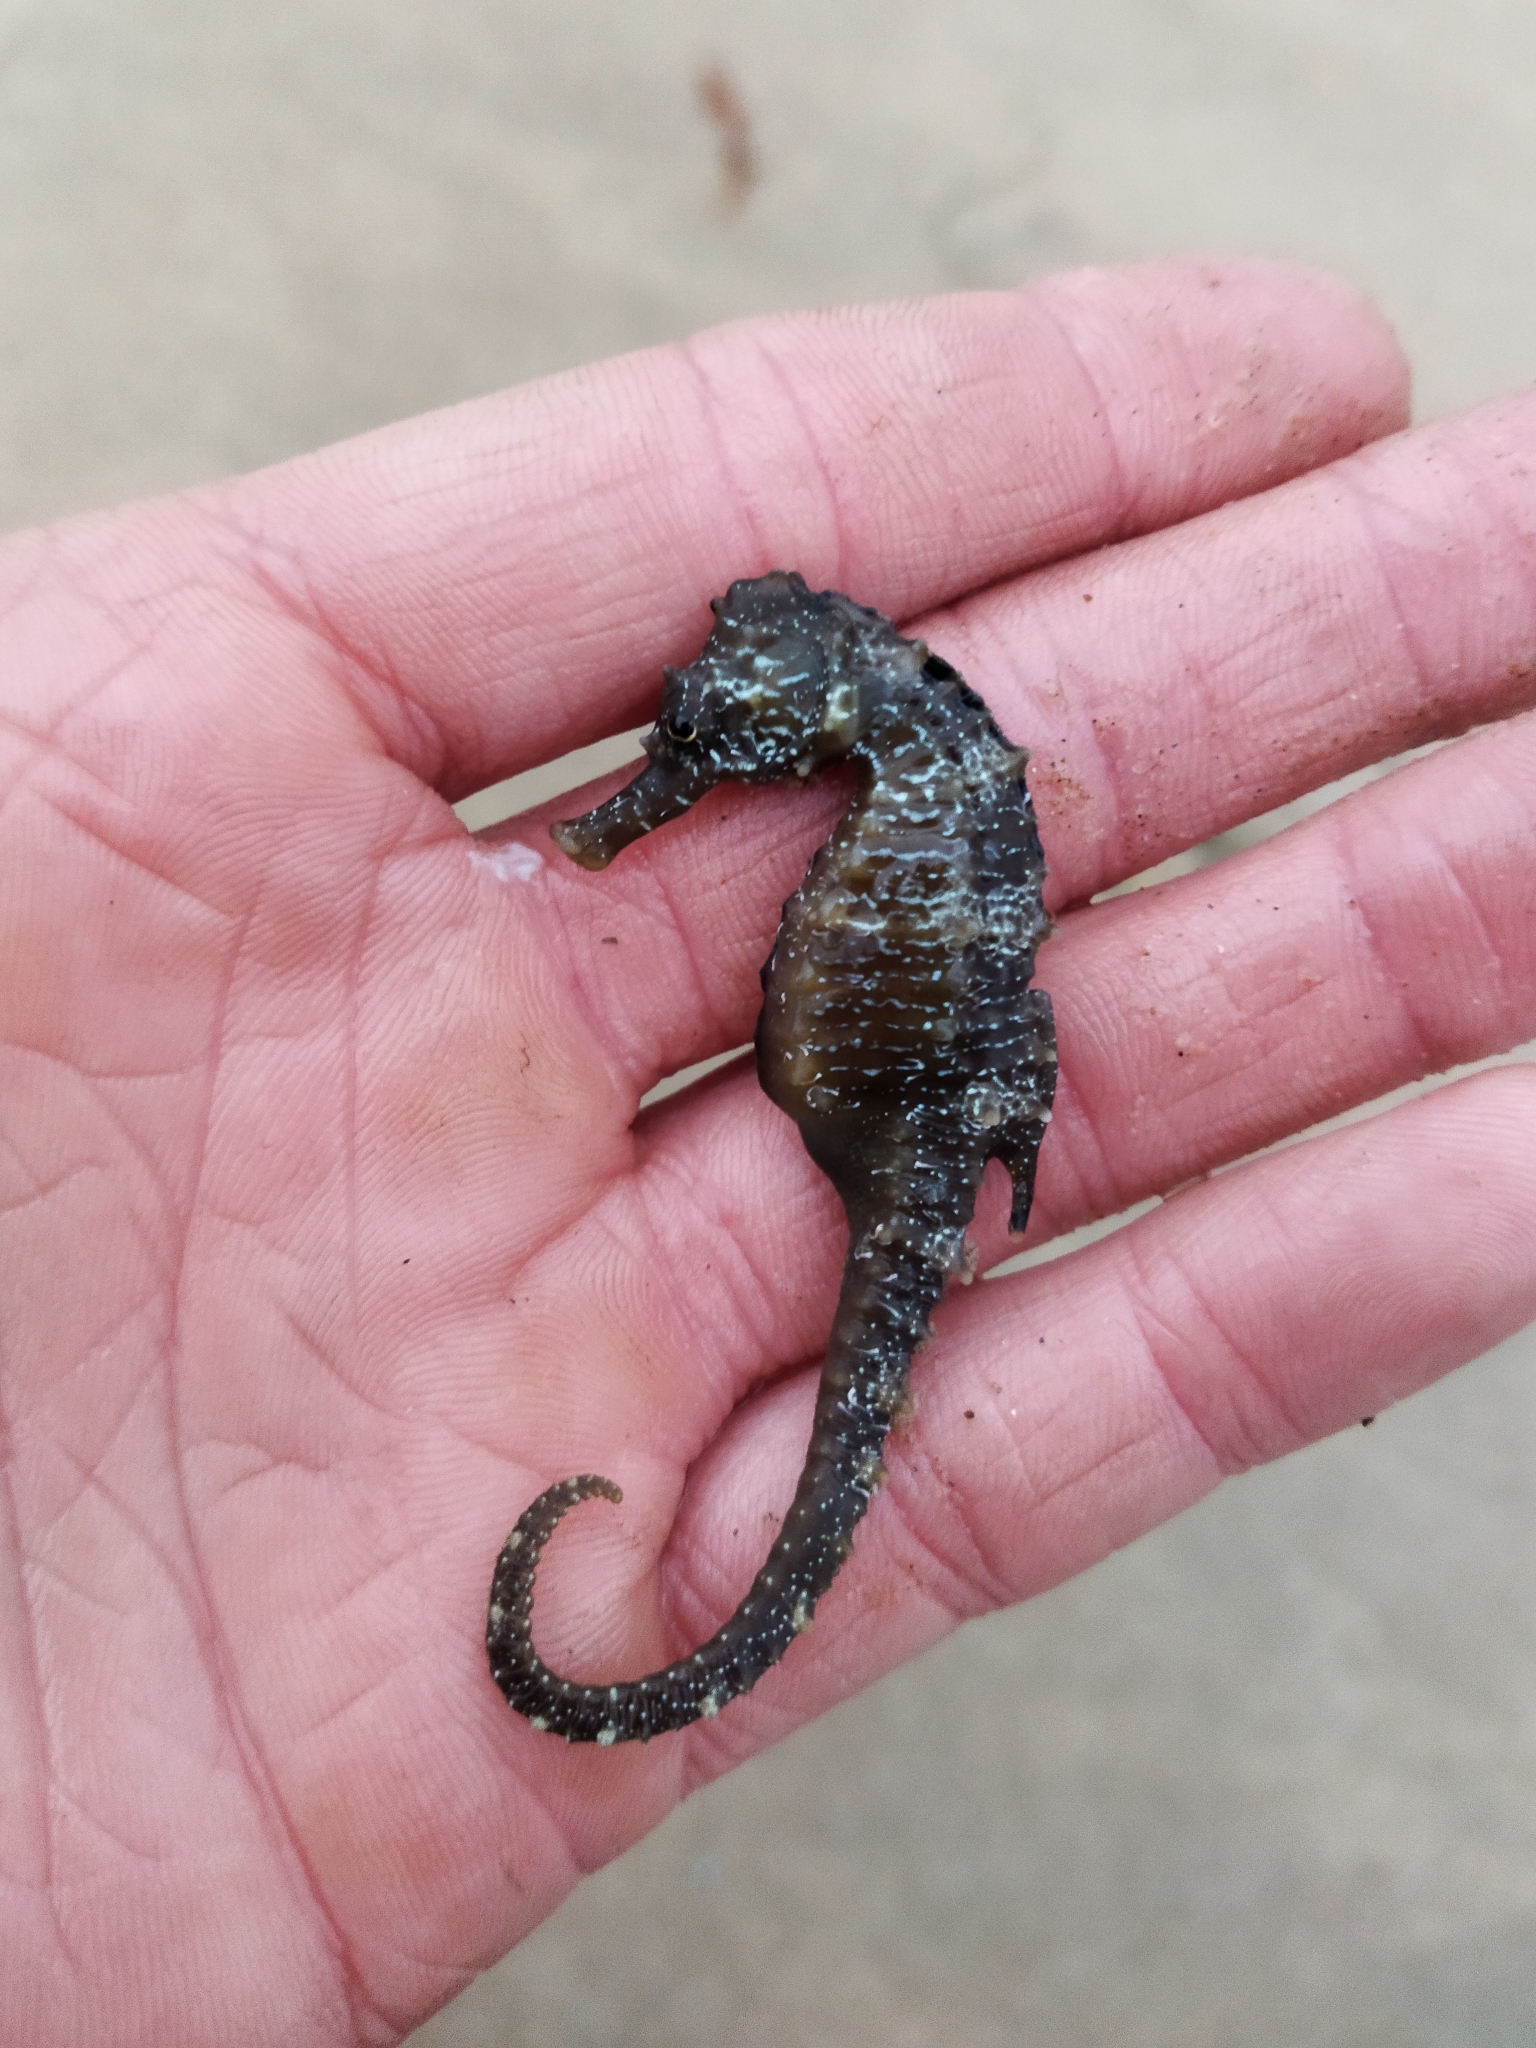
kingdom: Animalia
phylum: Chordata
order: Syngnathiformes
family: Syngnathidae
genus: Hippocampus
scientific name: Hippocampus guttulatus
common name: Long-snouted seahorse
